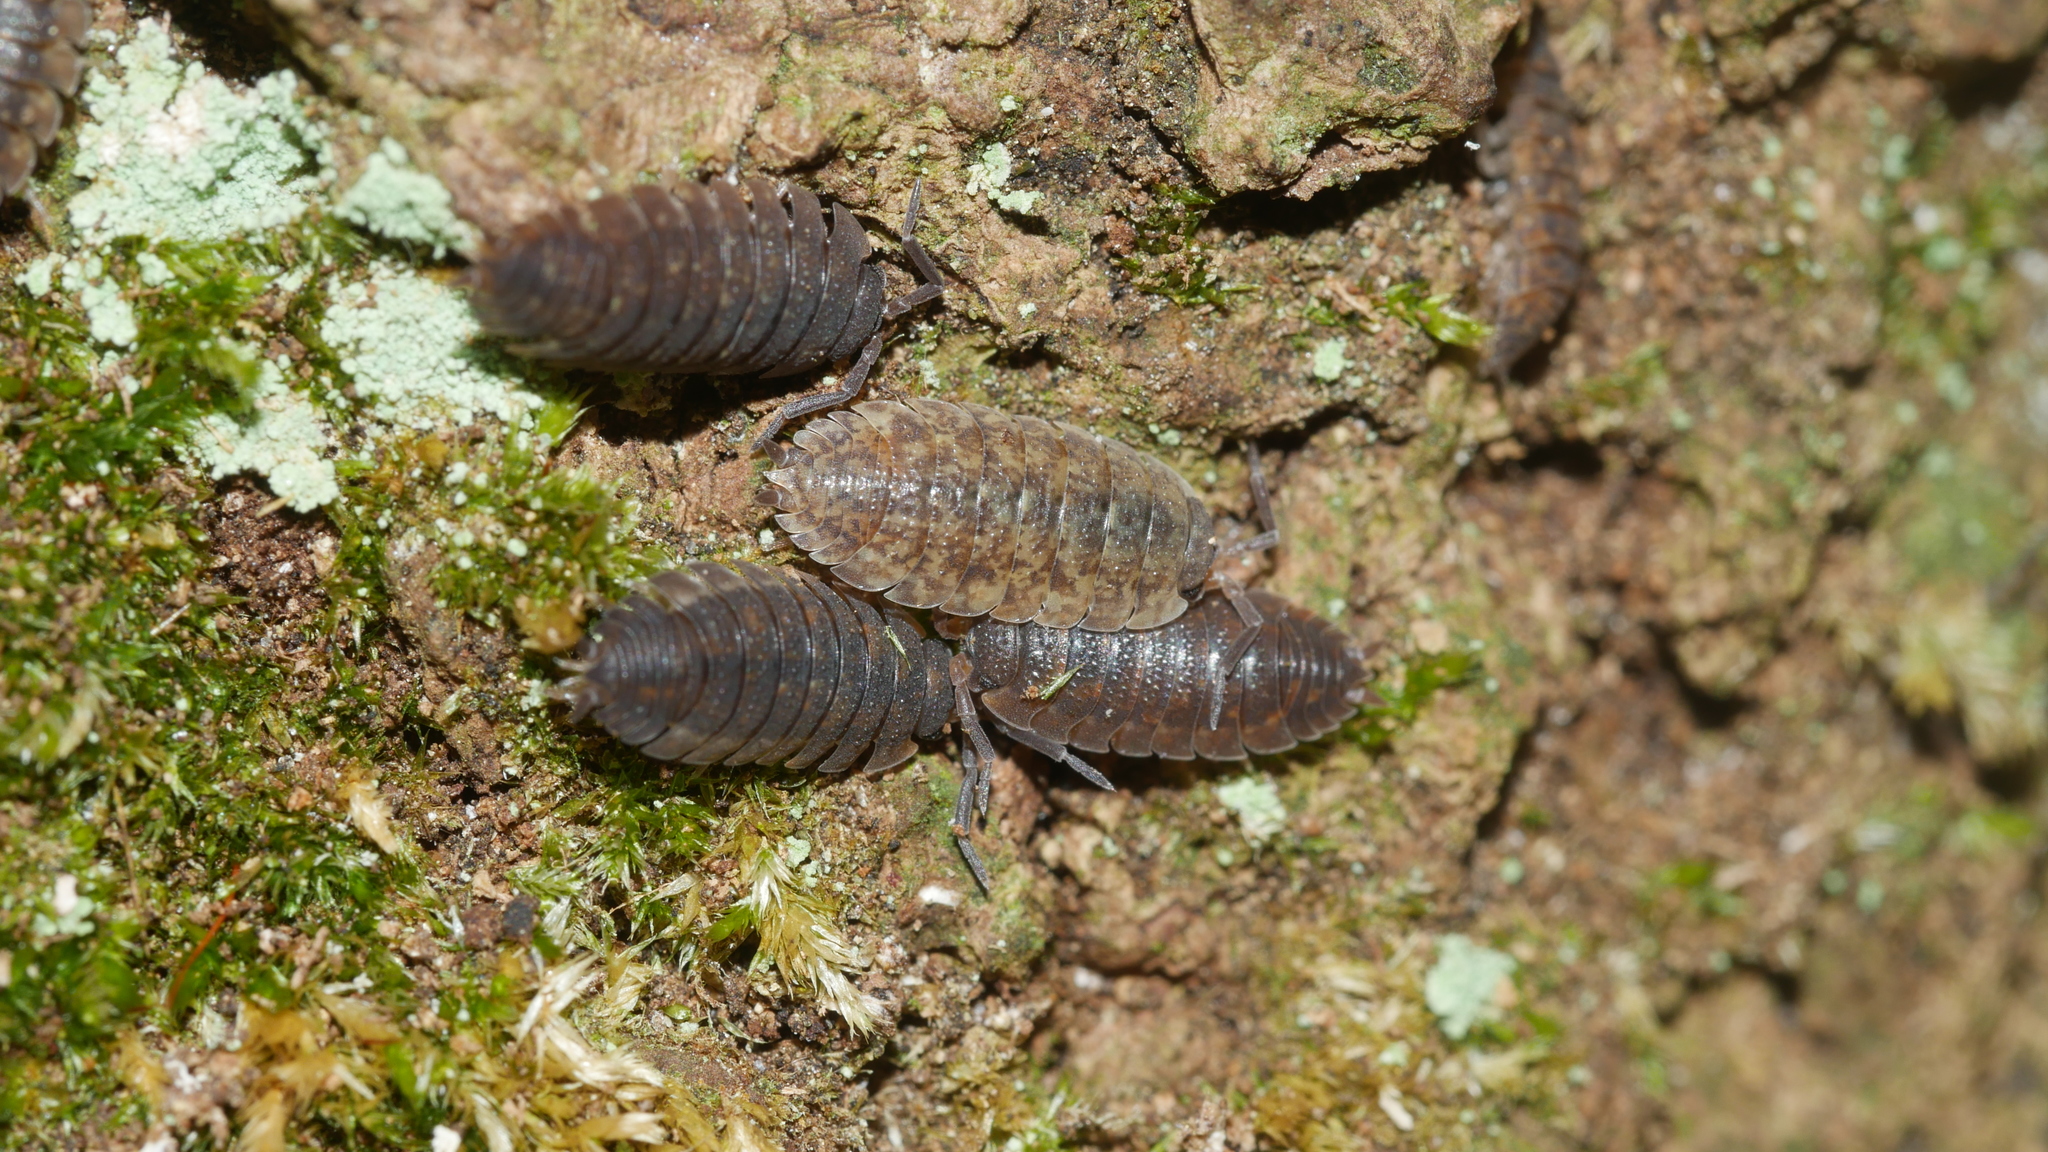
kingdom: Animalia
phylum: Arthropoda
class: Malacostraca
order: Isopoda
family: Porcellionidae
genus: Porcellio
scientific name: Porcellio scaber
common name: Common rough woodlouse
